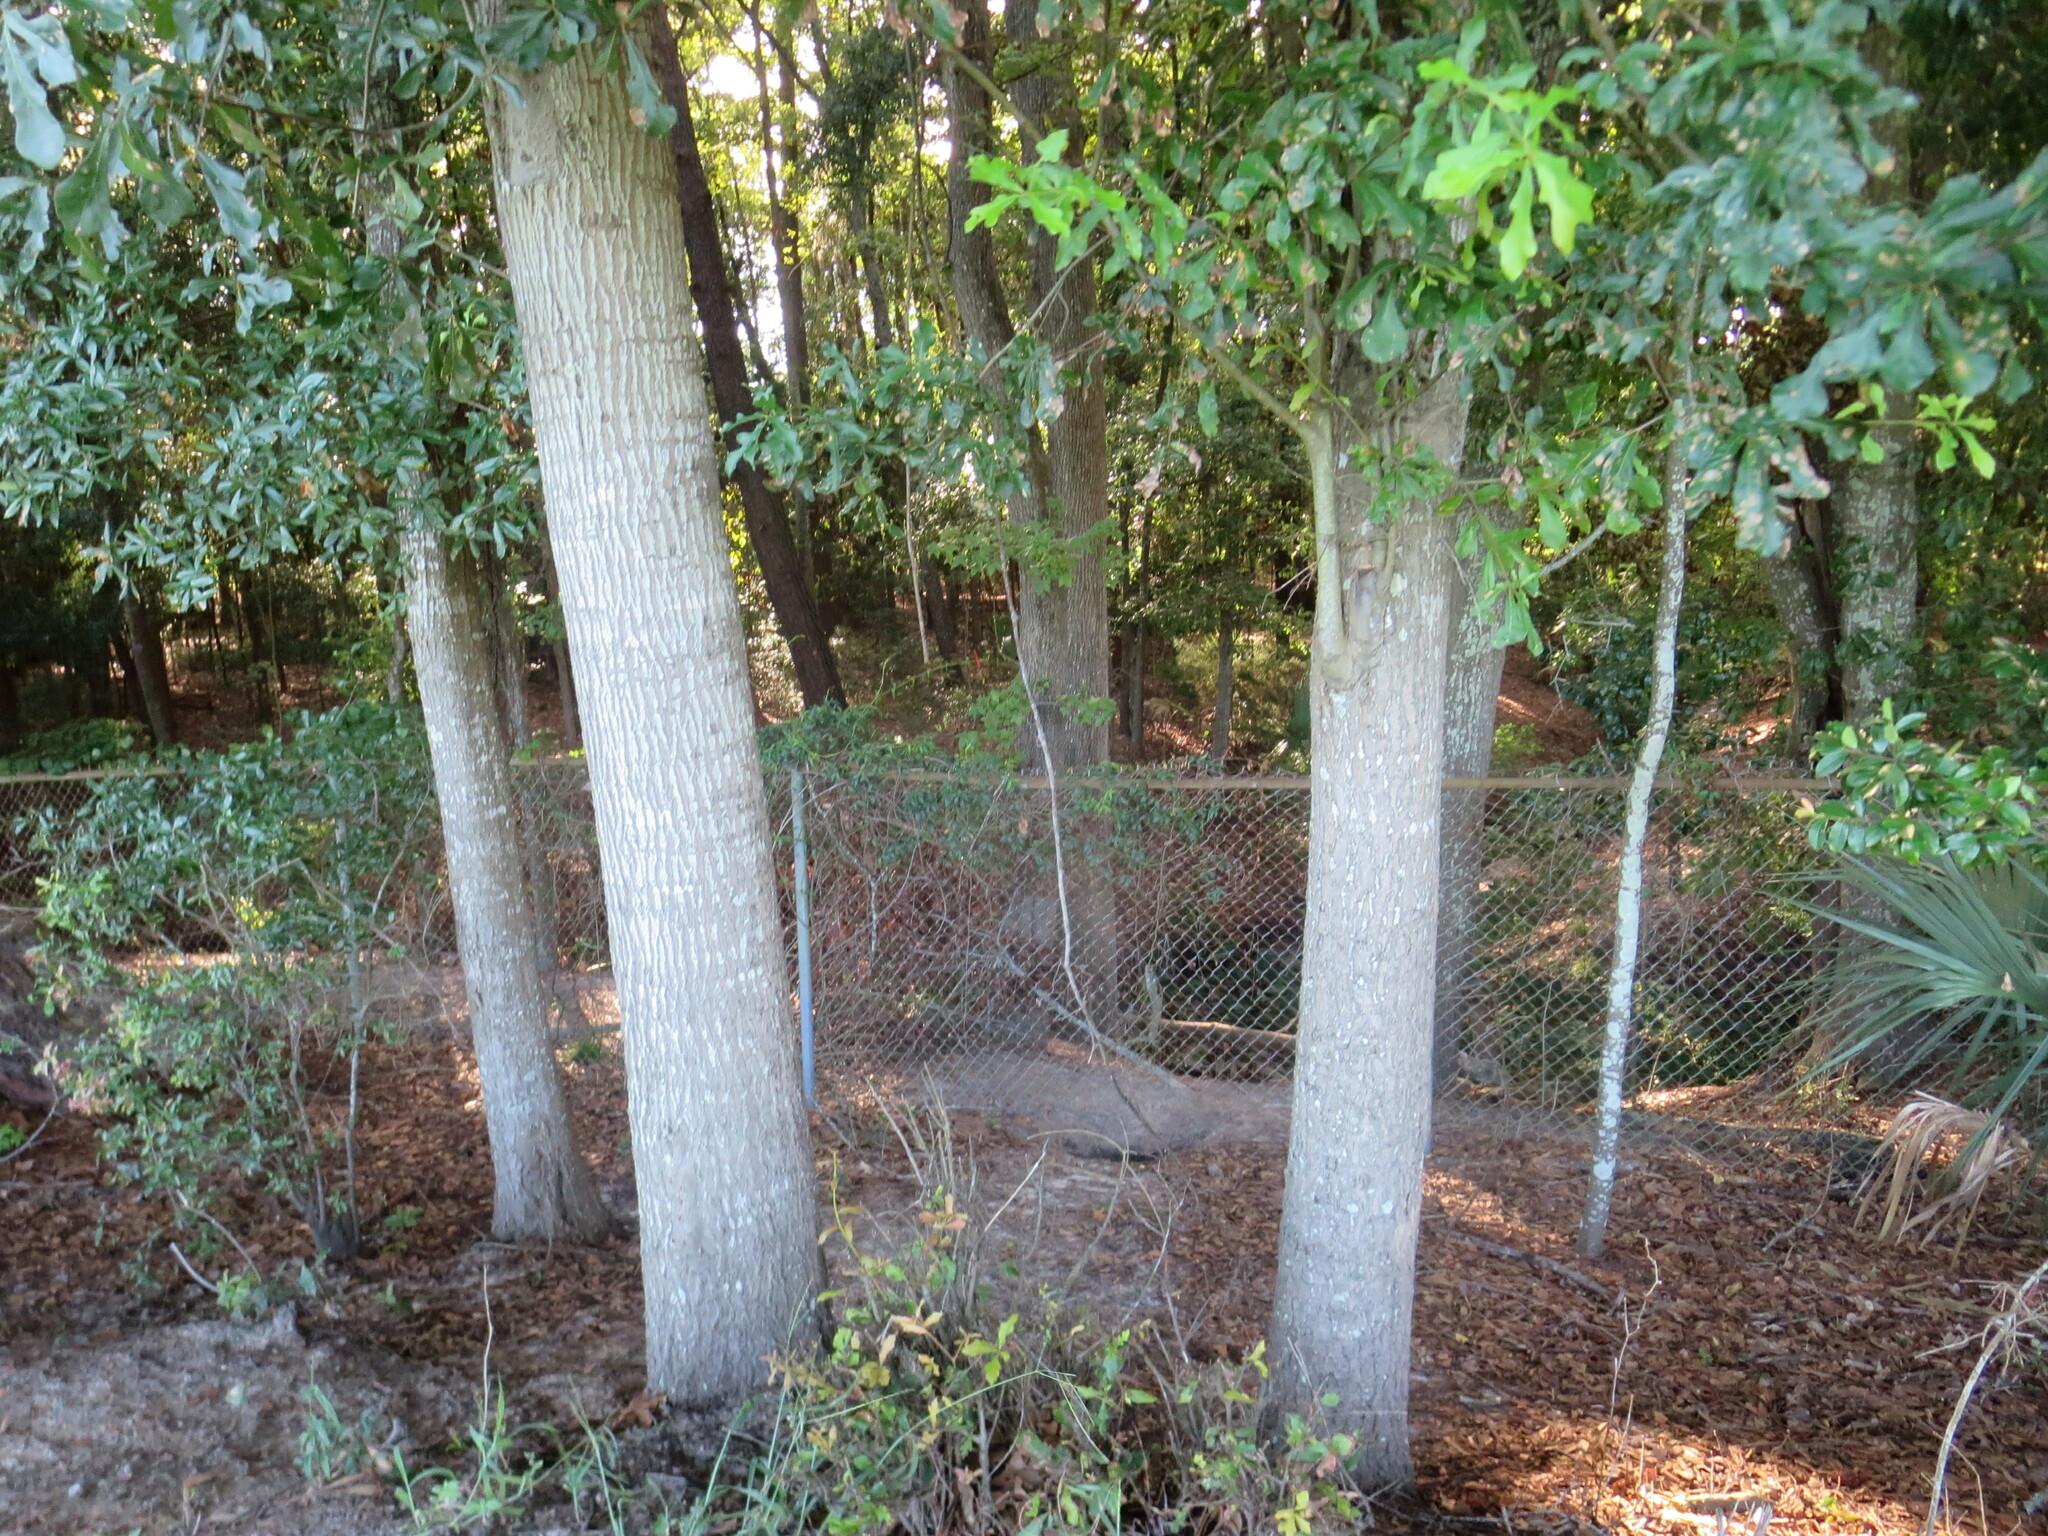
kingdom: Plantae
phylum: Tracheophyta
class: Magnoliopsida
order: Fagales
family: Fagaceae
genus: Quercus
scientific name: Quercus nigra
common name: Water oak
